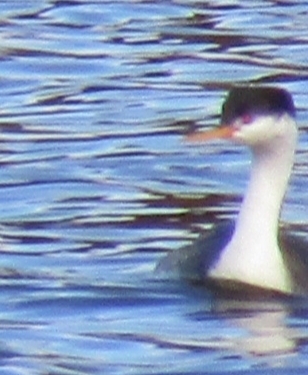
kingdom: Animalia
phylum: Chordata
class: Aves
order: Podicipediformes
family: Podicipedidae
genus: Aechmophorus
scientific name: Aechmophorus clarkii
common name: Clark's grebe
